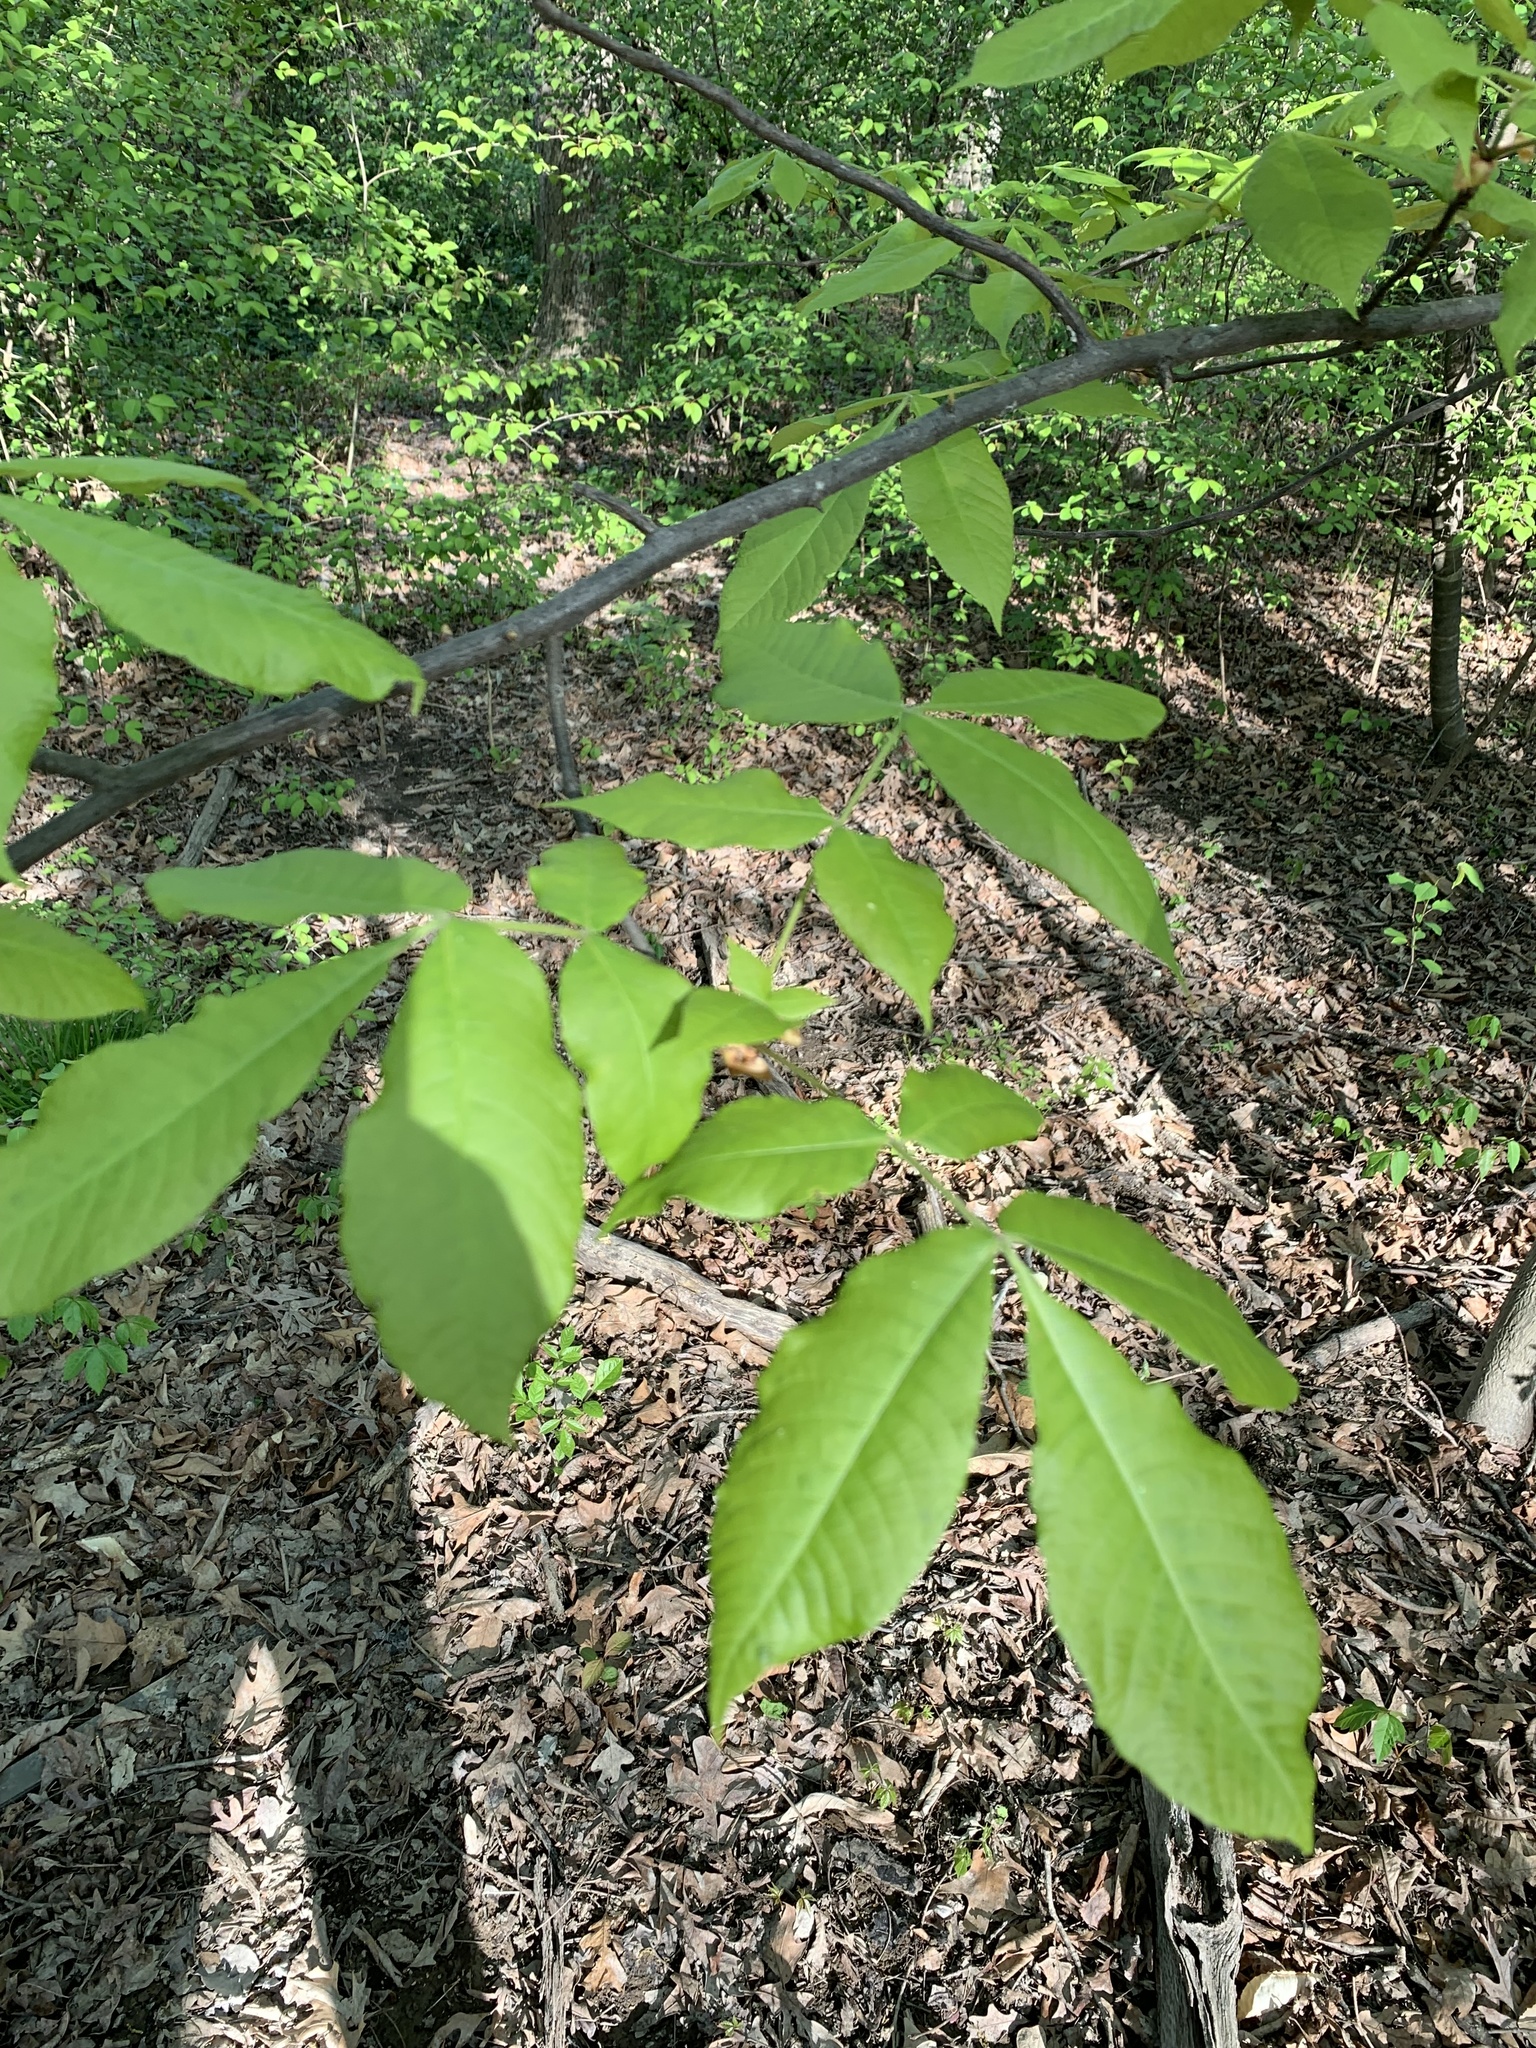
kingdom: Plantae
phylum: Tracheophyta
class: Magnoliopsida
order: Fagales
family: Juglandaceae
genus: Carya
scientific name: Carya glabra
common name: Pignut hickory
